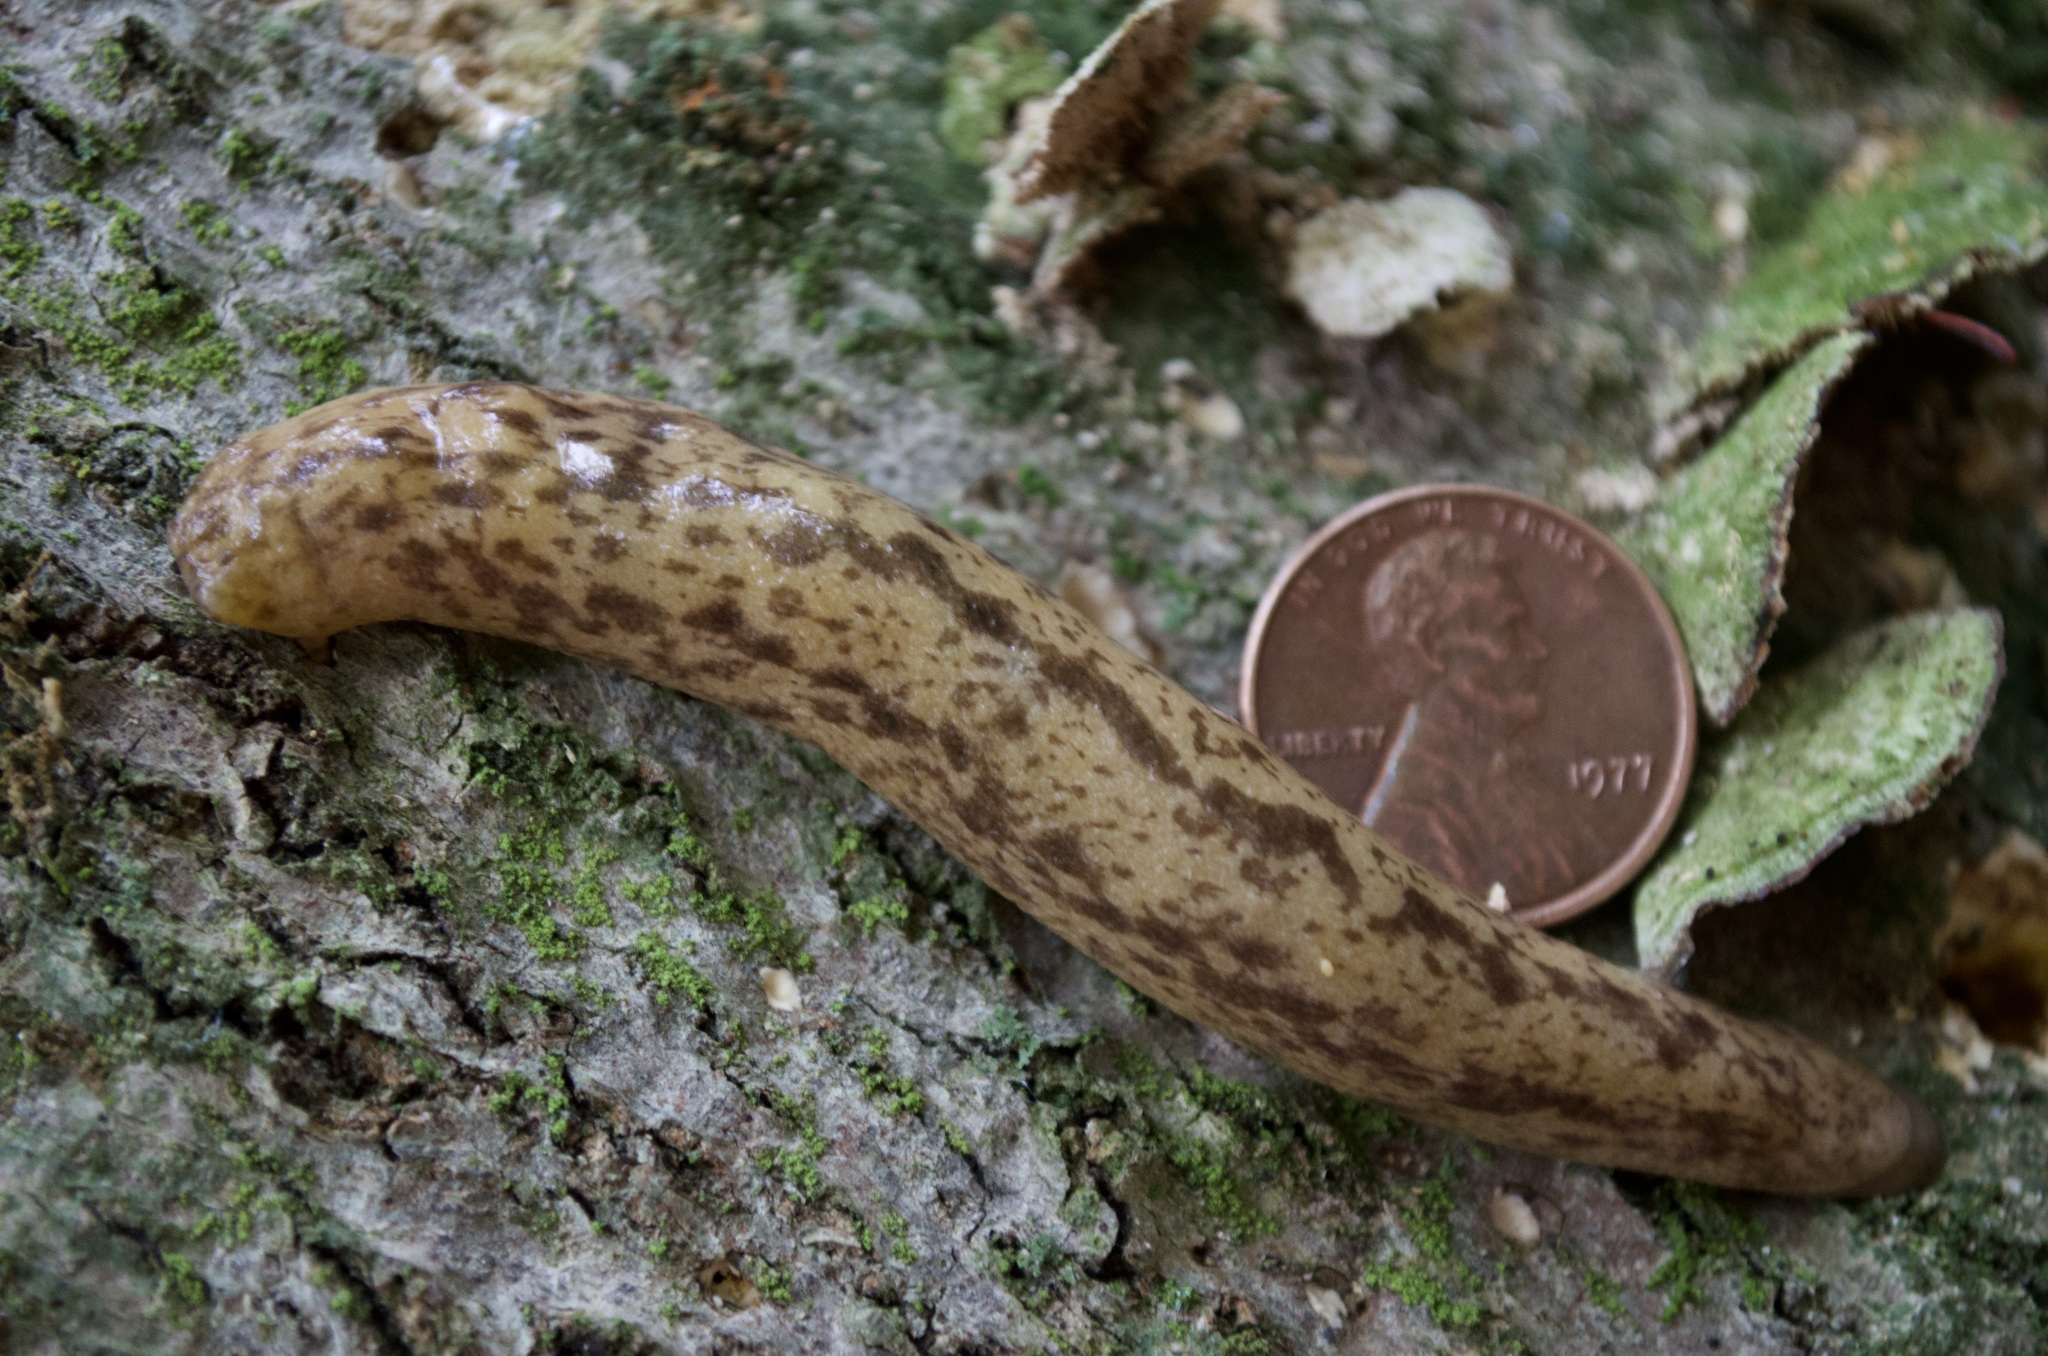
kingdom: Animalia
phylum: Mollusca
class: Gastropoda
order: Stylommatophora
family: Philomycidae
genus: Philomycus
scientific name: Philomycus flexuolaris
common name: Winding mantleslug
